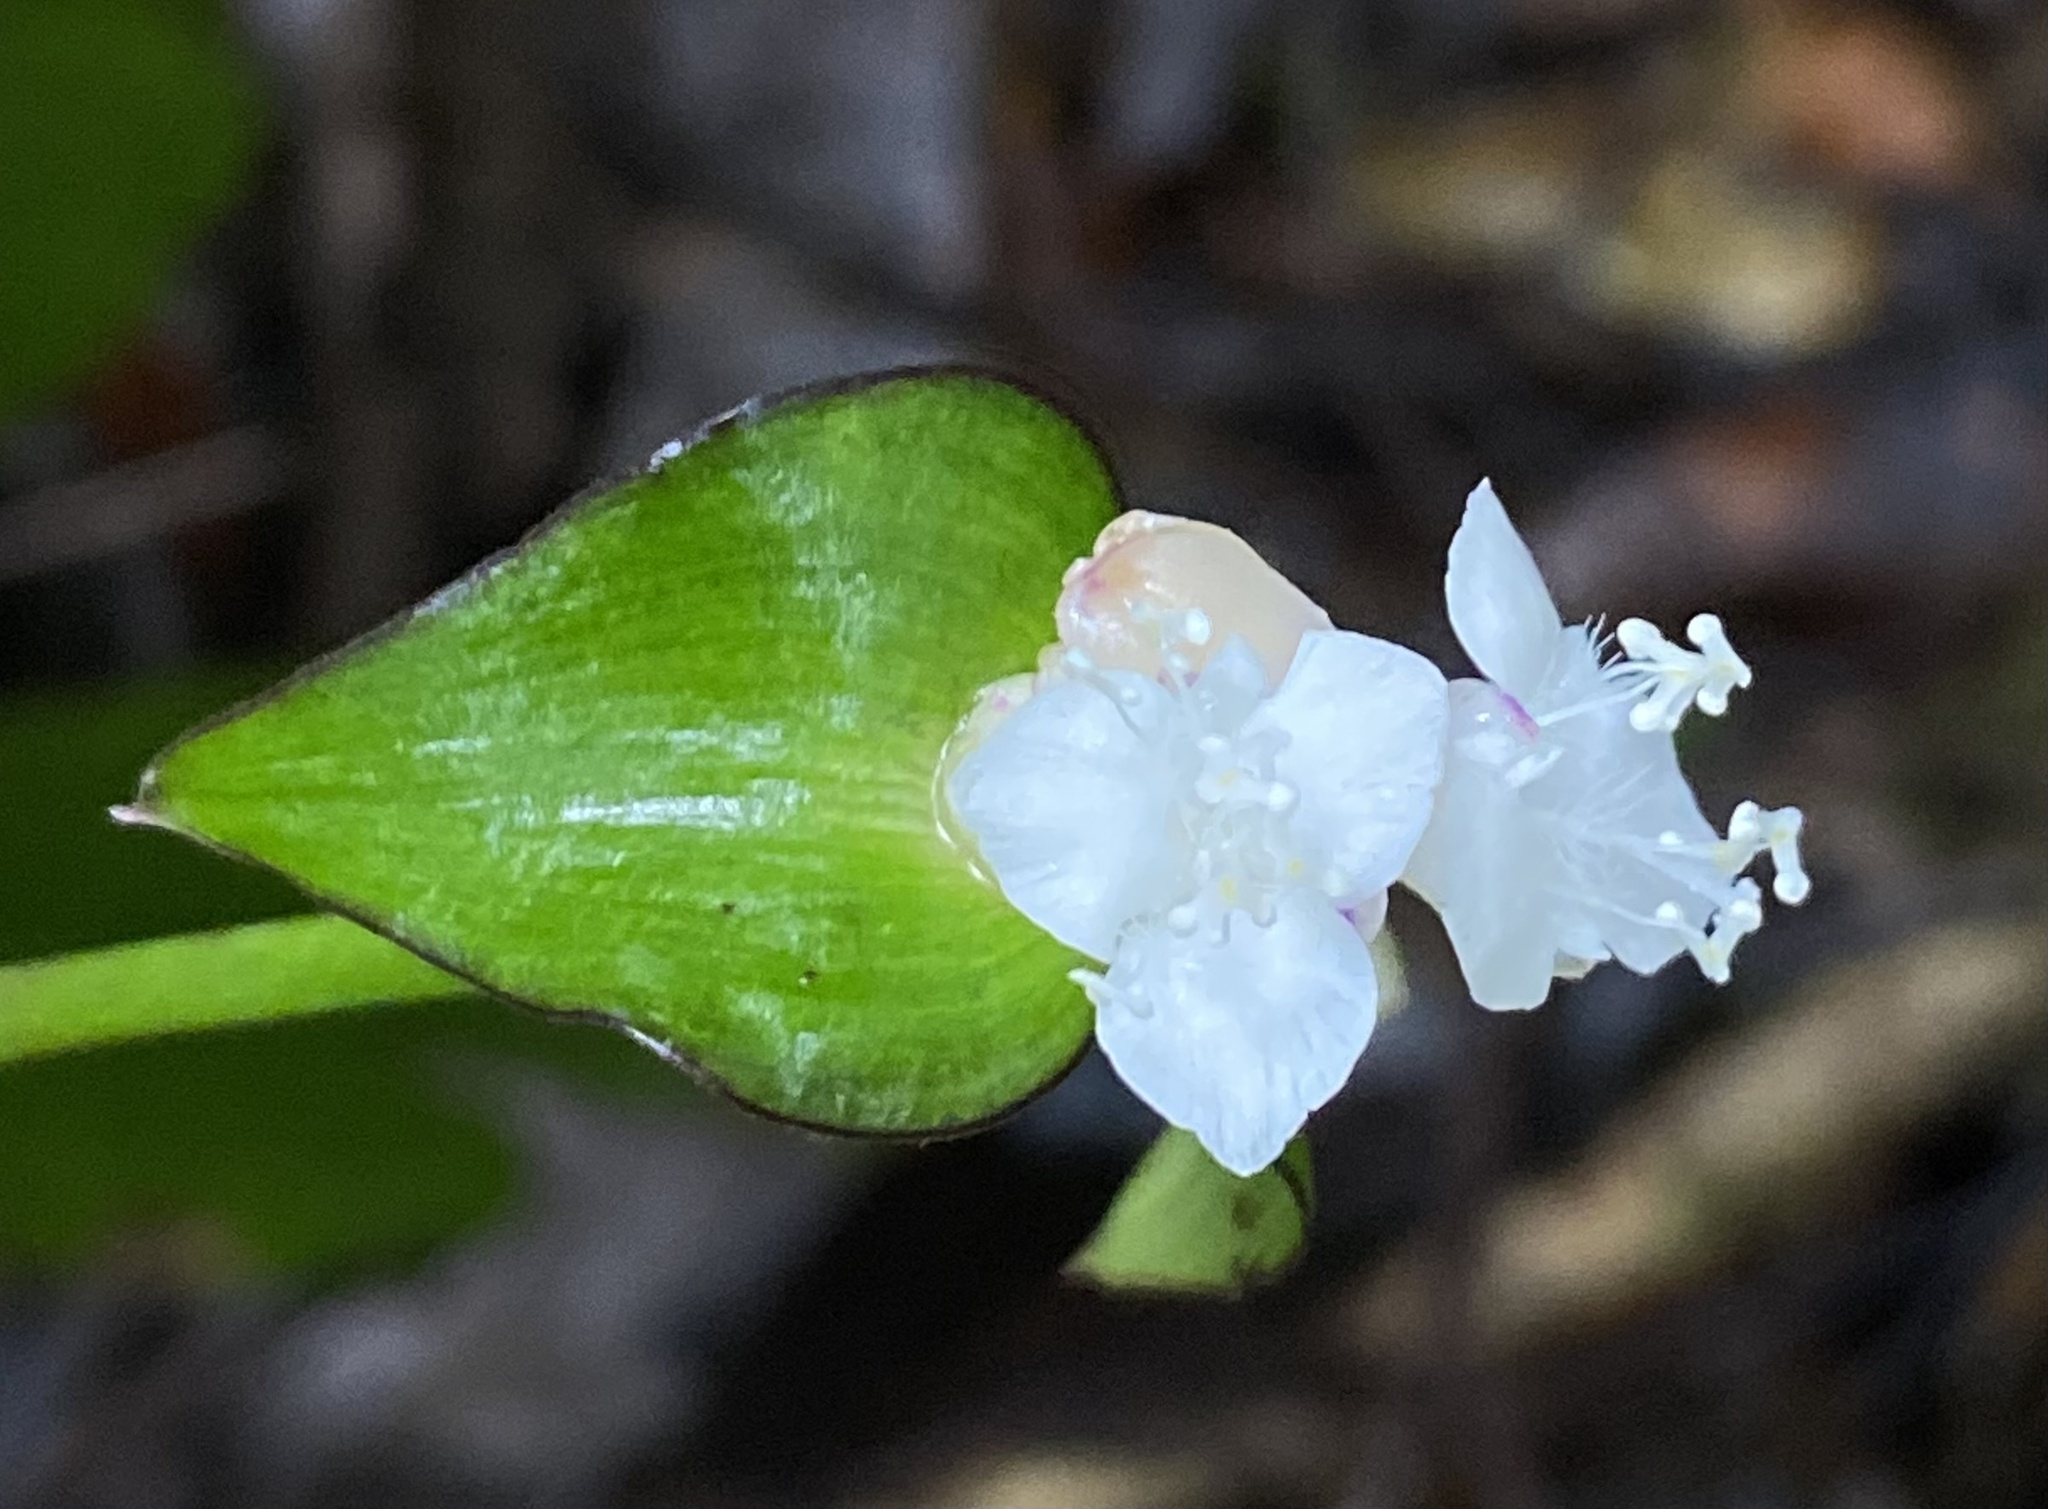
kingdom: Plantae
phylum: Tracheophyta
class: Liliopsida
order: Commelinales
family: Commelinaceae
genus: Tradescantia
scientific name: Tradescantia zanonia
